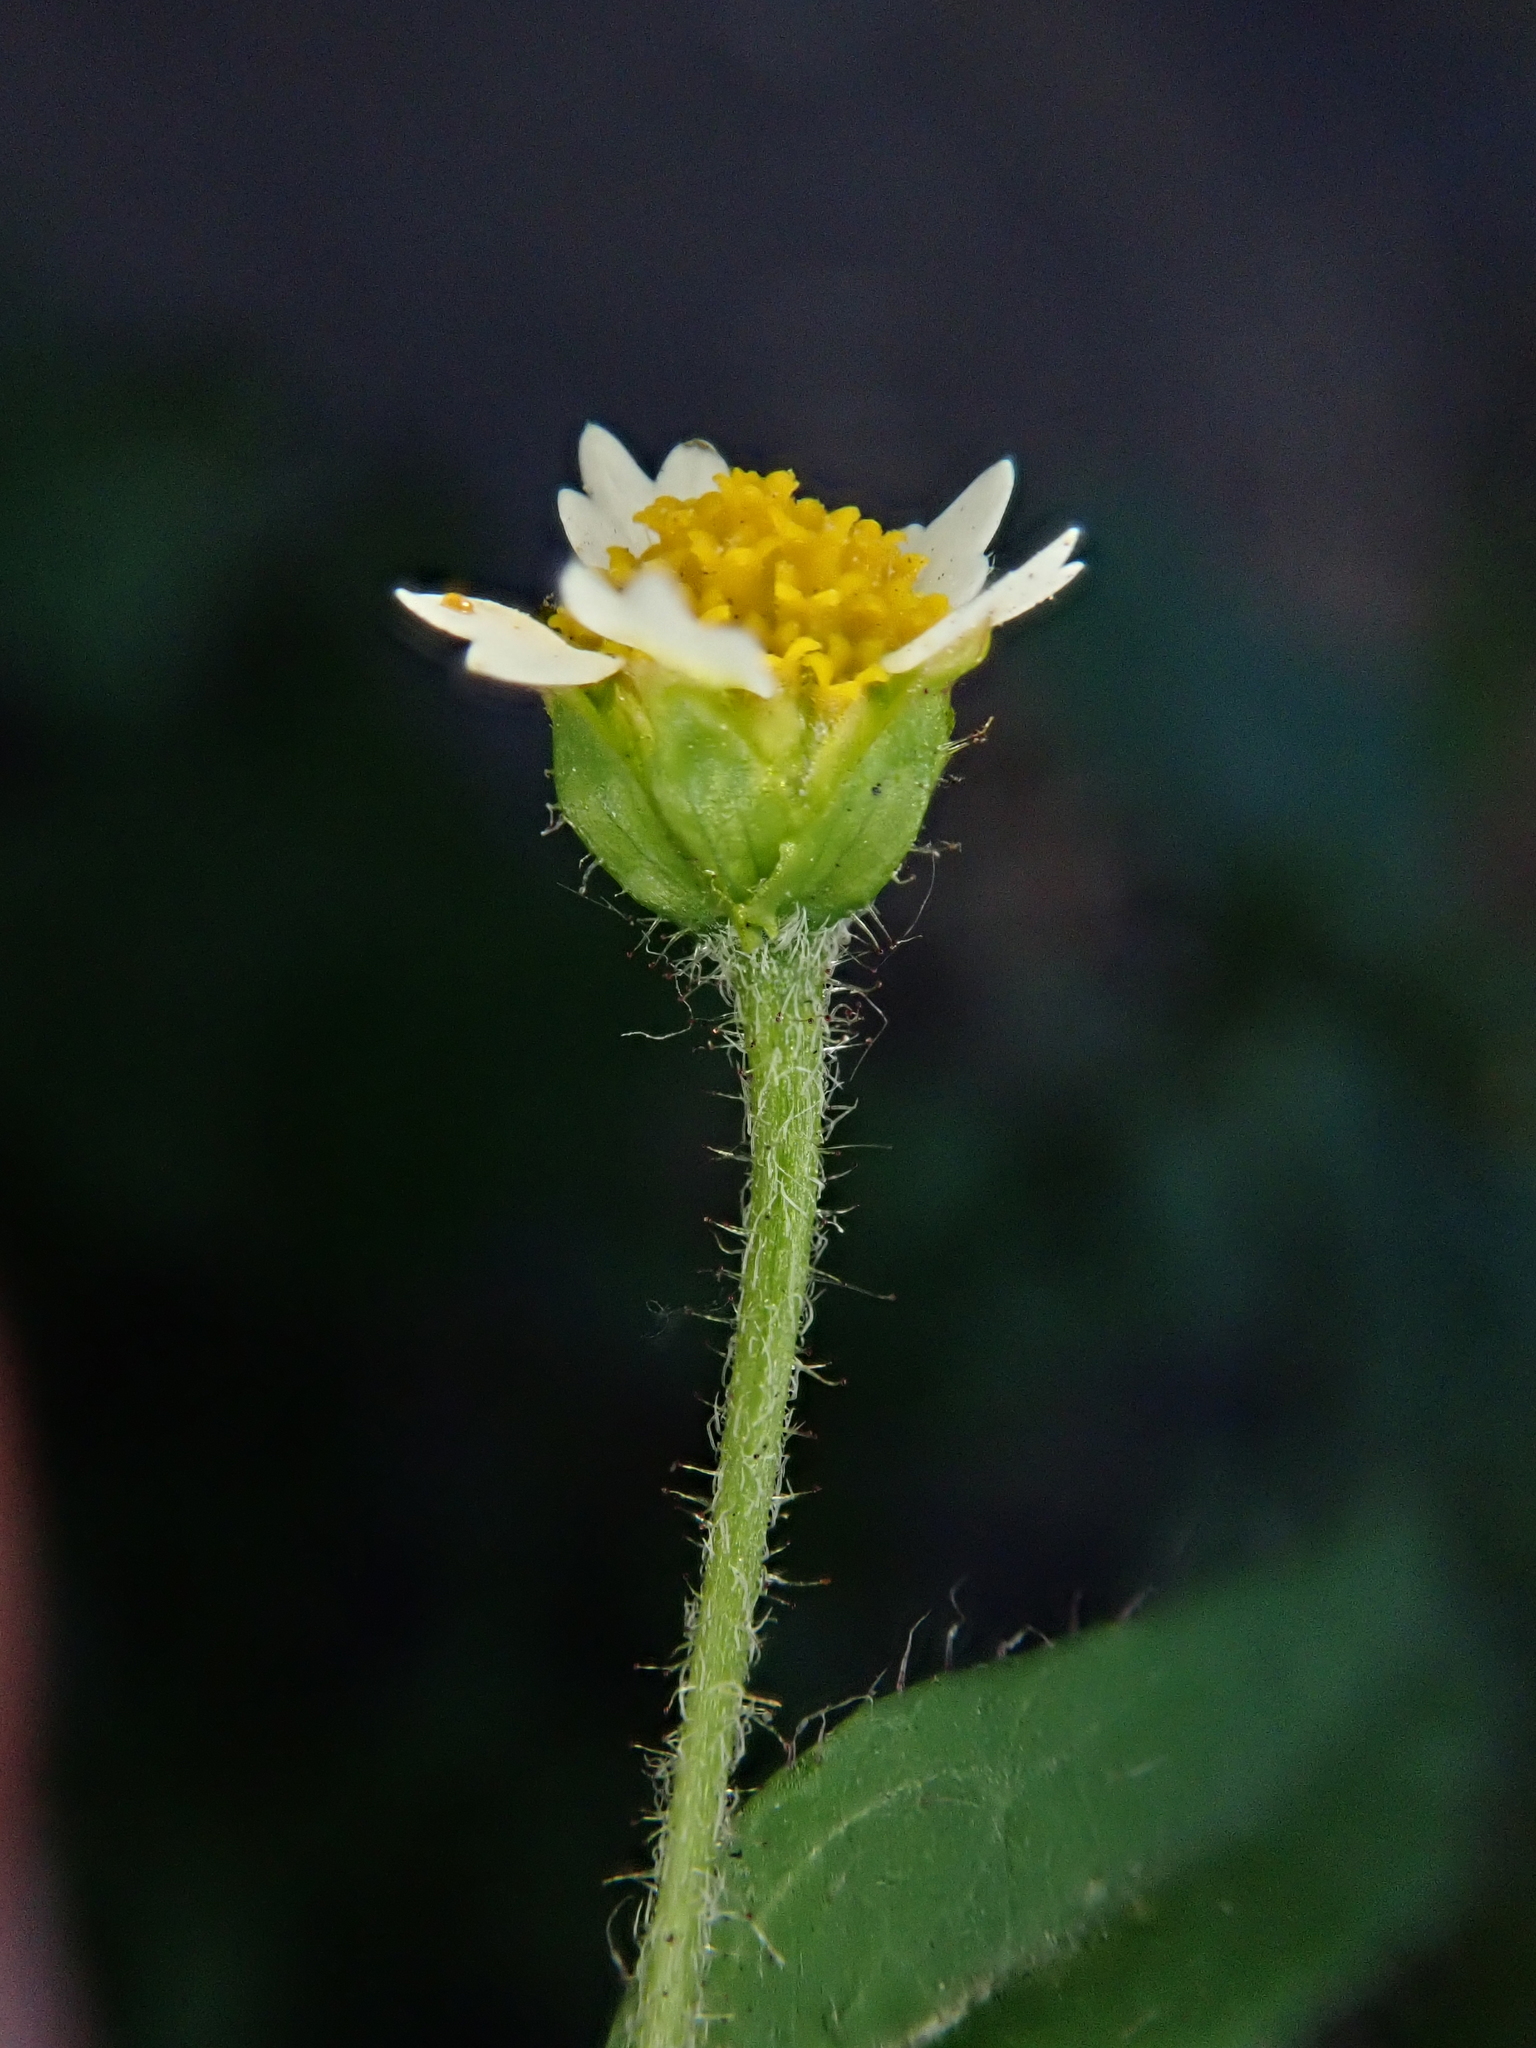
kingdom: Plantae
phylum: Tracheophyta
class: Magnoliopsida
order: Asterales
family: Asteraceae
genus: Galinsoga
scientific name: Galinsoga quadriradiata
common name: Shaggy soldier
